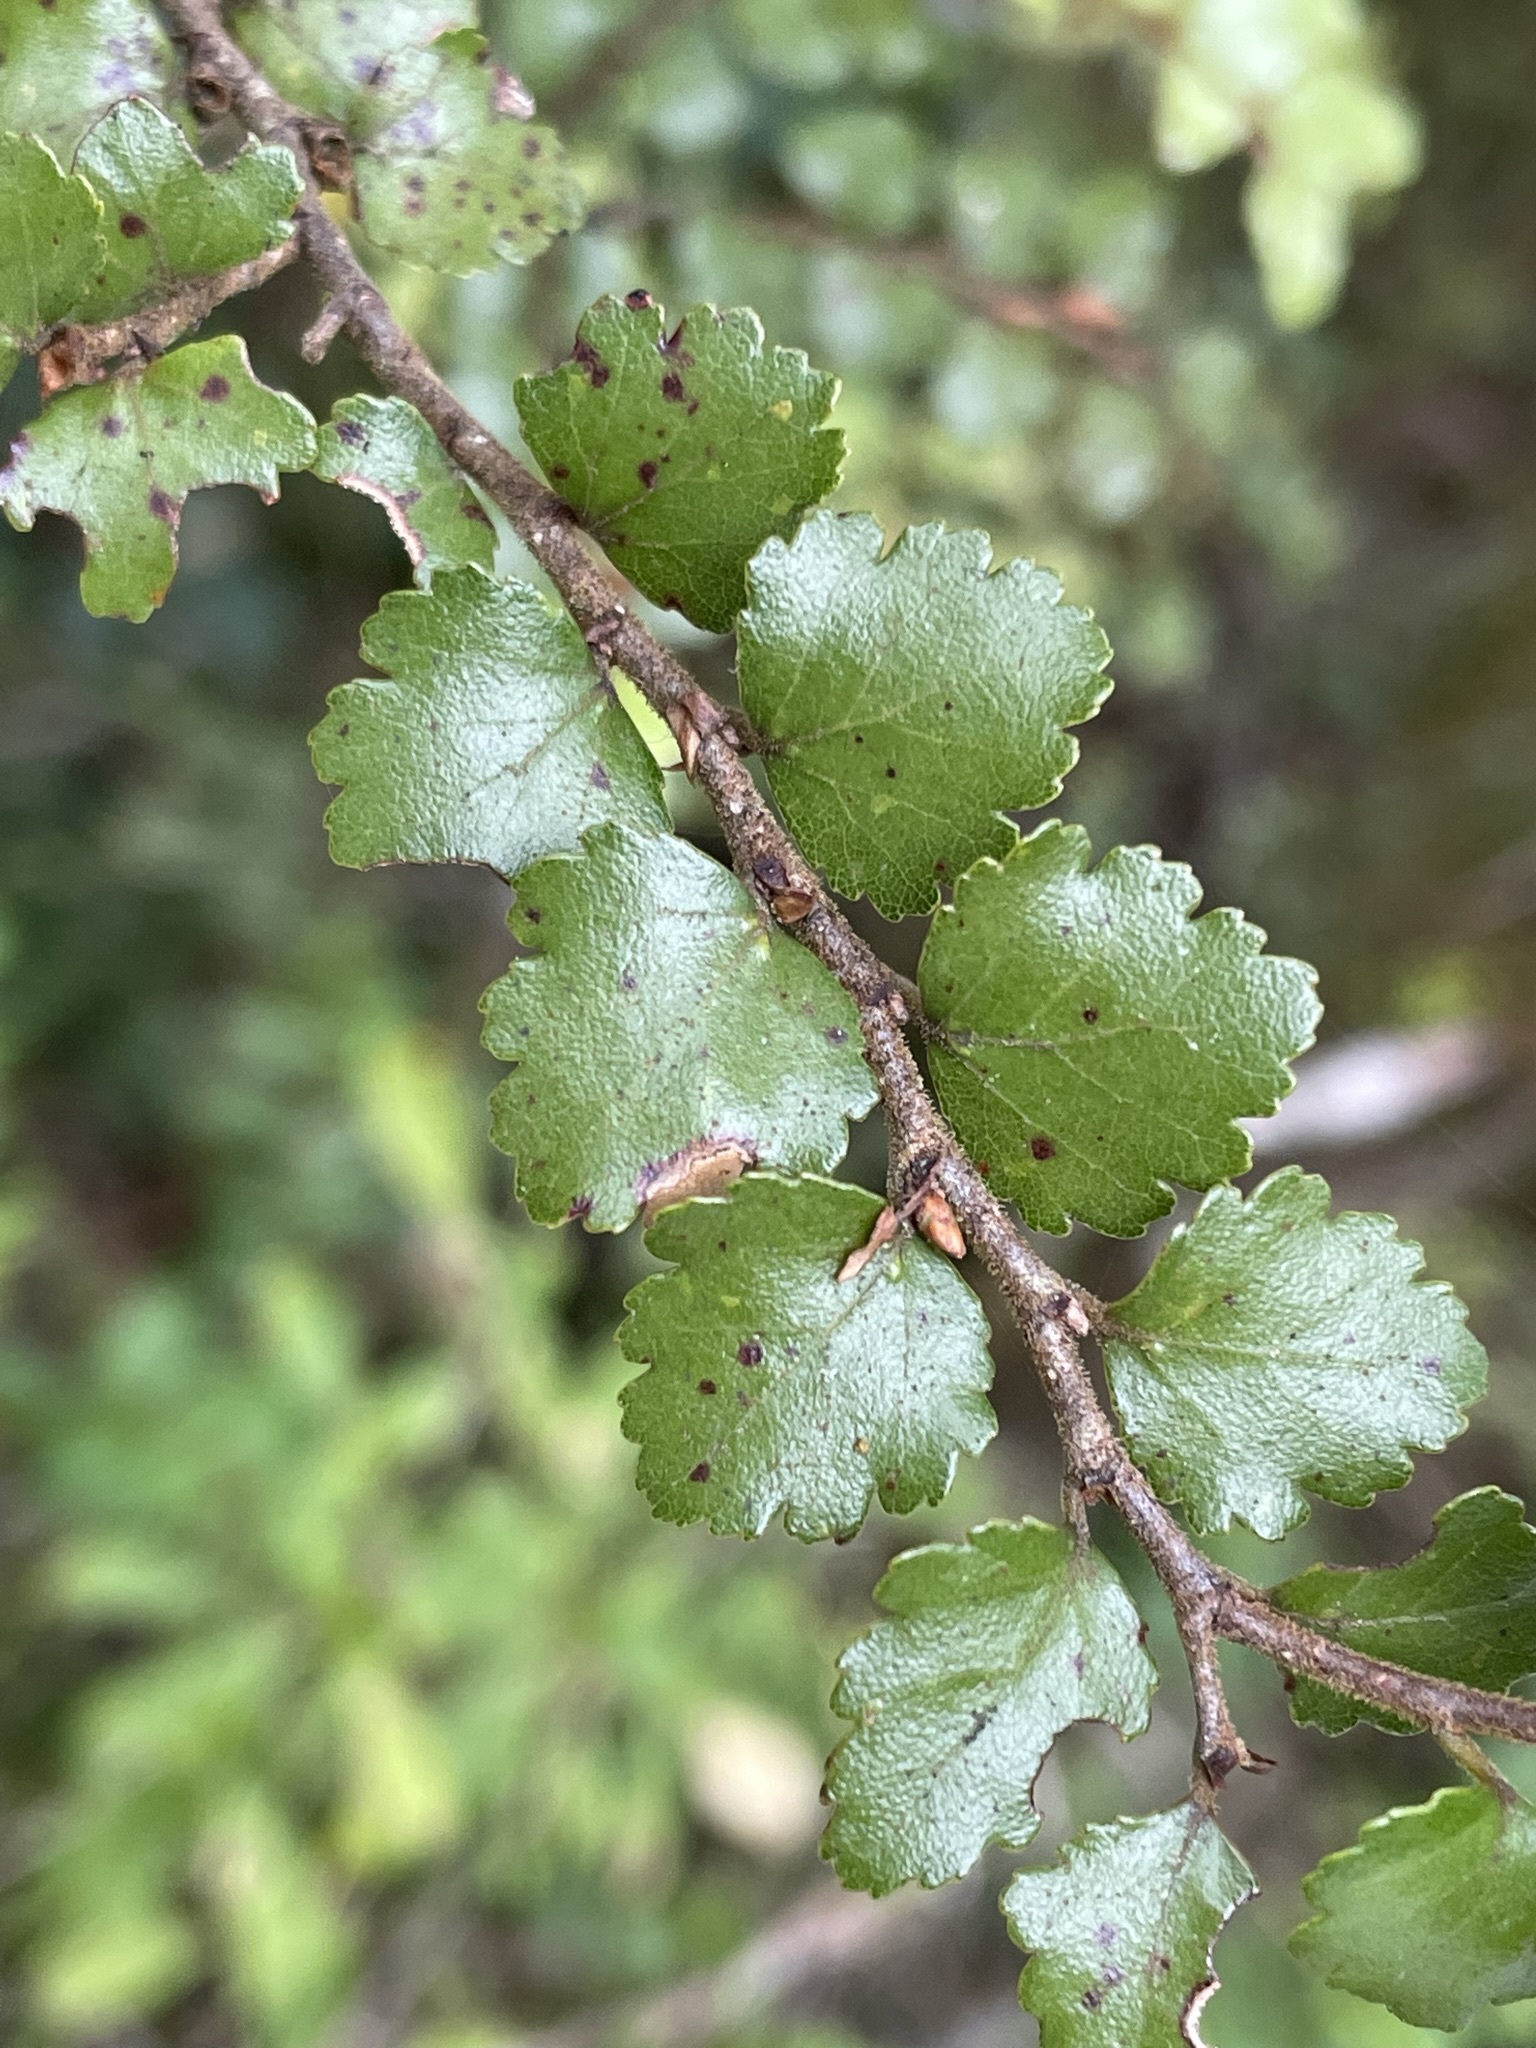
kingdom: Plantae
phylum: Tracheophyta
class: Magnoliopsida
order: Fagales
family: Nothofagaceae
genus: Nothofagus
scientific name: Nothofagus menziesii
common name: Silver beech
